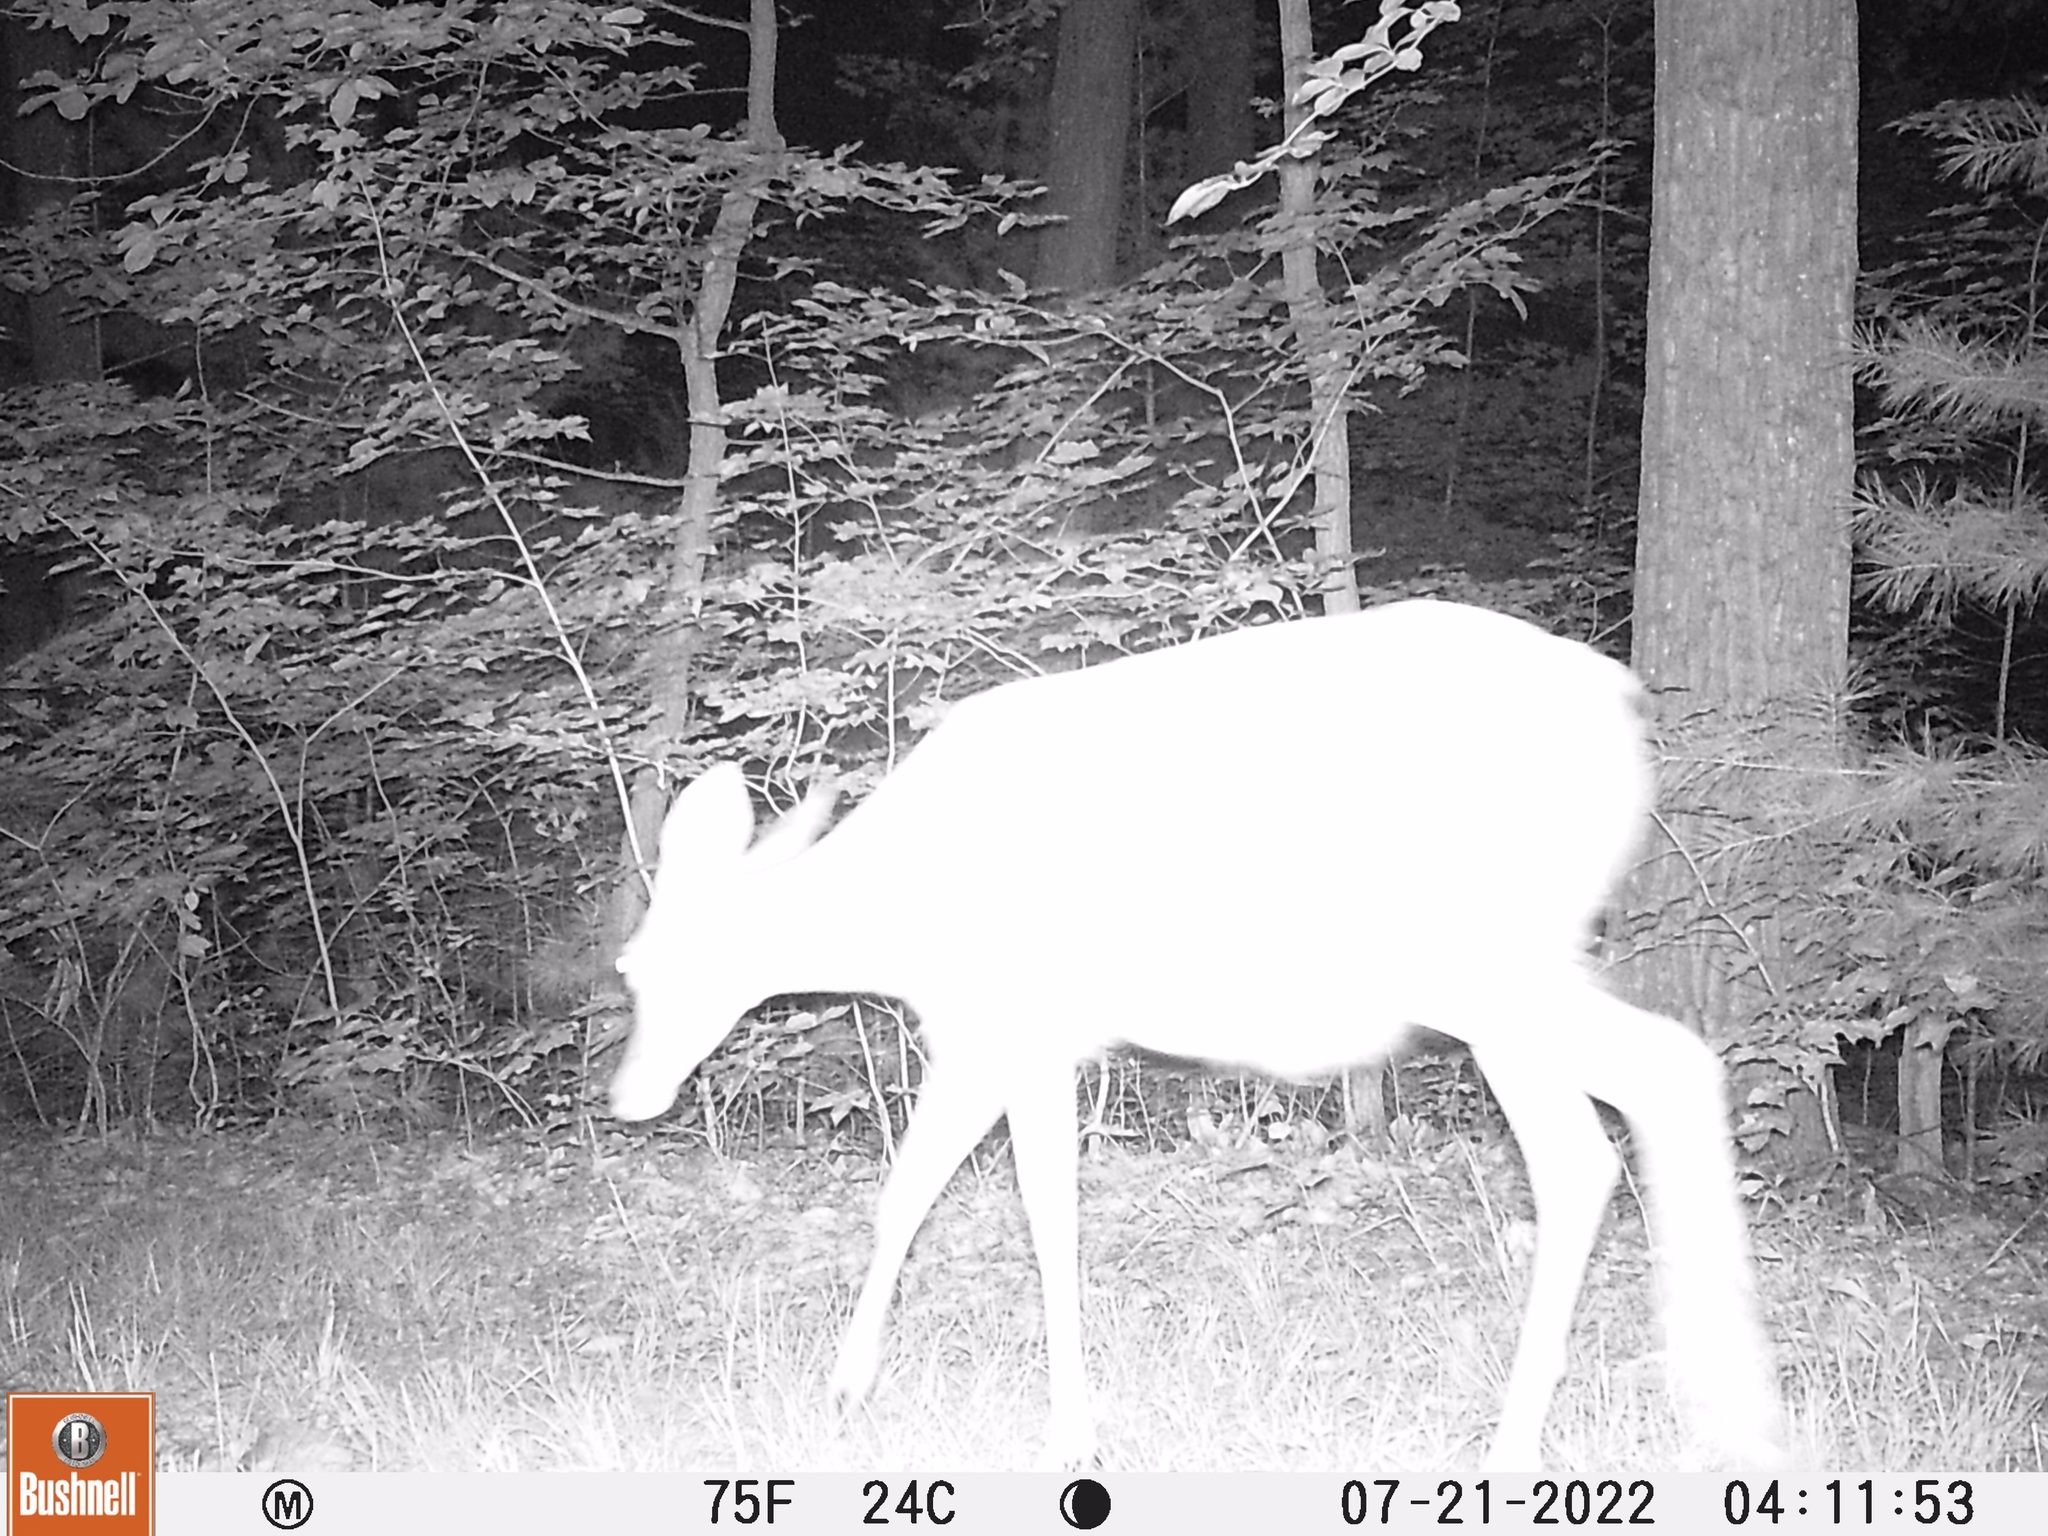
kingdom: Animalia
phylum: Chordata
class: Mammalia
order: Artiodactyla
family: Cervidae
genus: Odocoileus
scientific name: Odocoileus virginianus
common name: White-tailed deer
